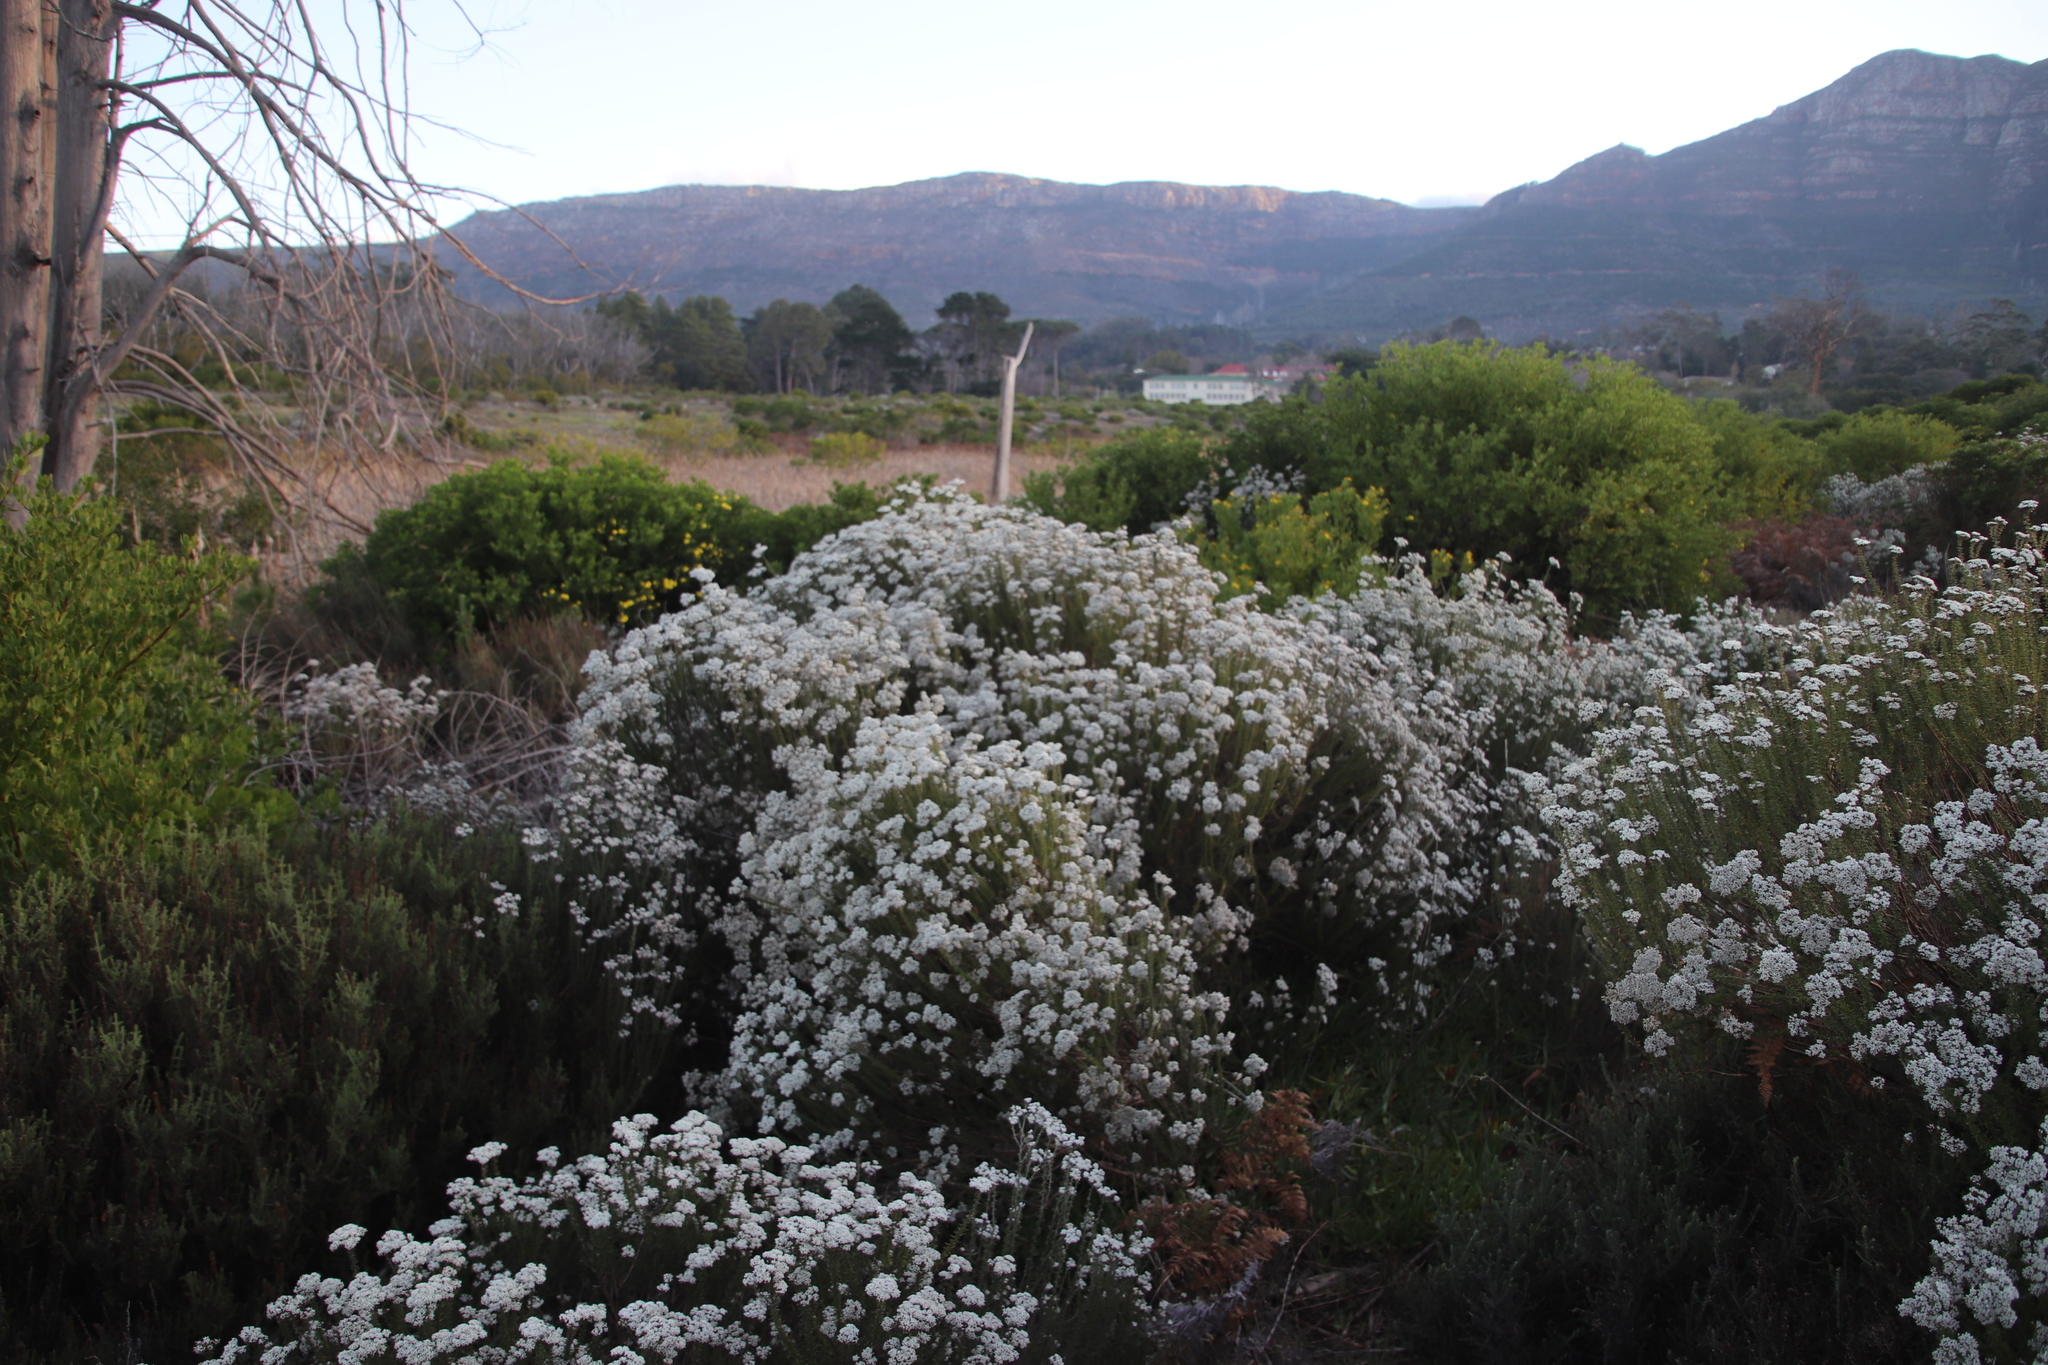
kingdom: Plantae
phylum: Tracheophyta
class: Magnoliopsida
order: Asterales
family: Asteraceae
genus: Metalasia
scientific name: Metalasia densa
